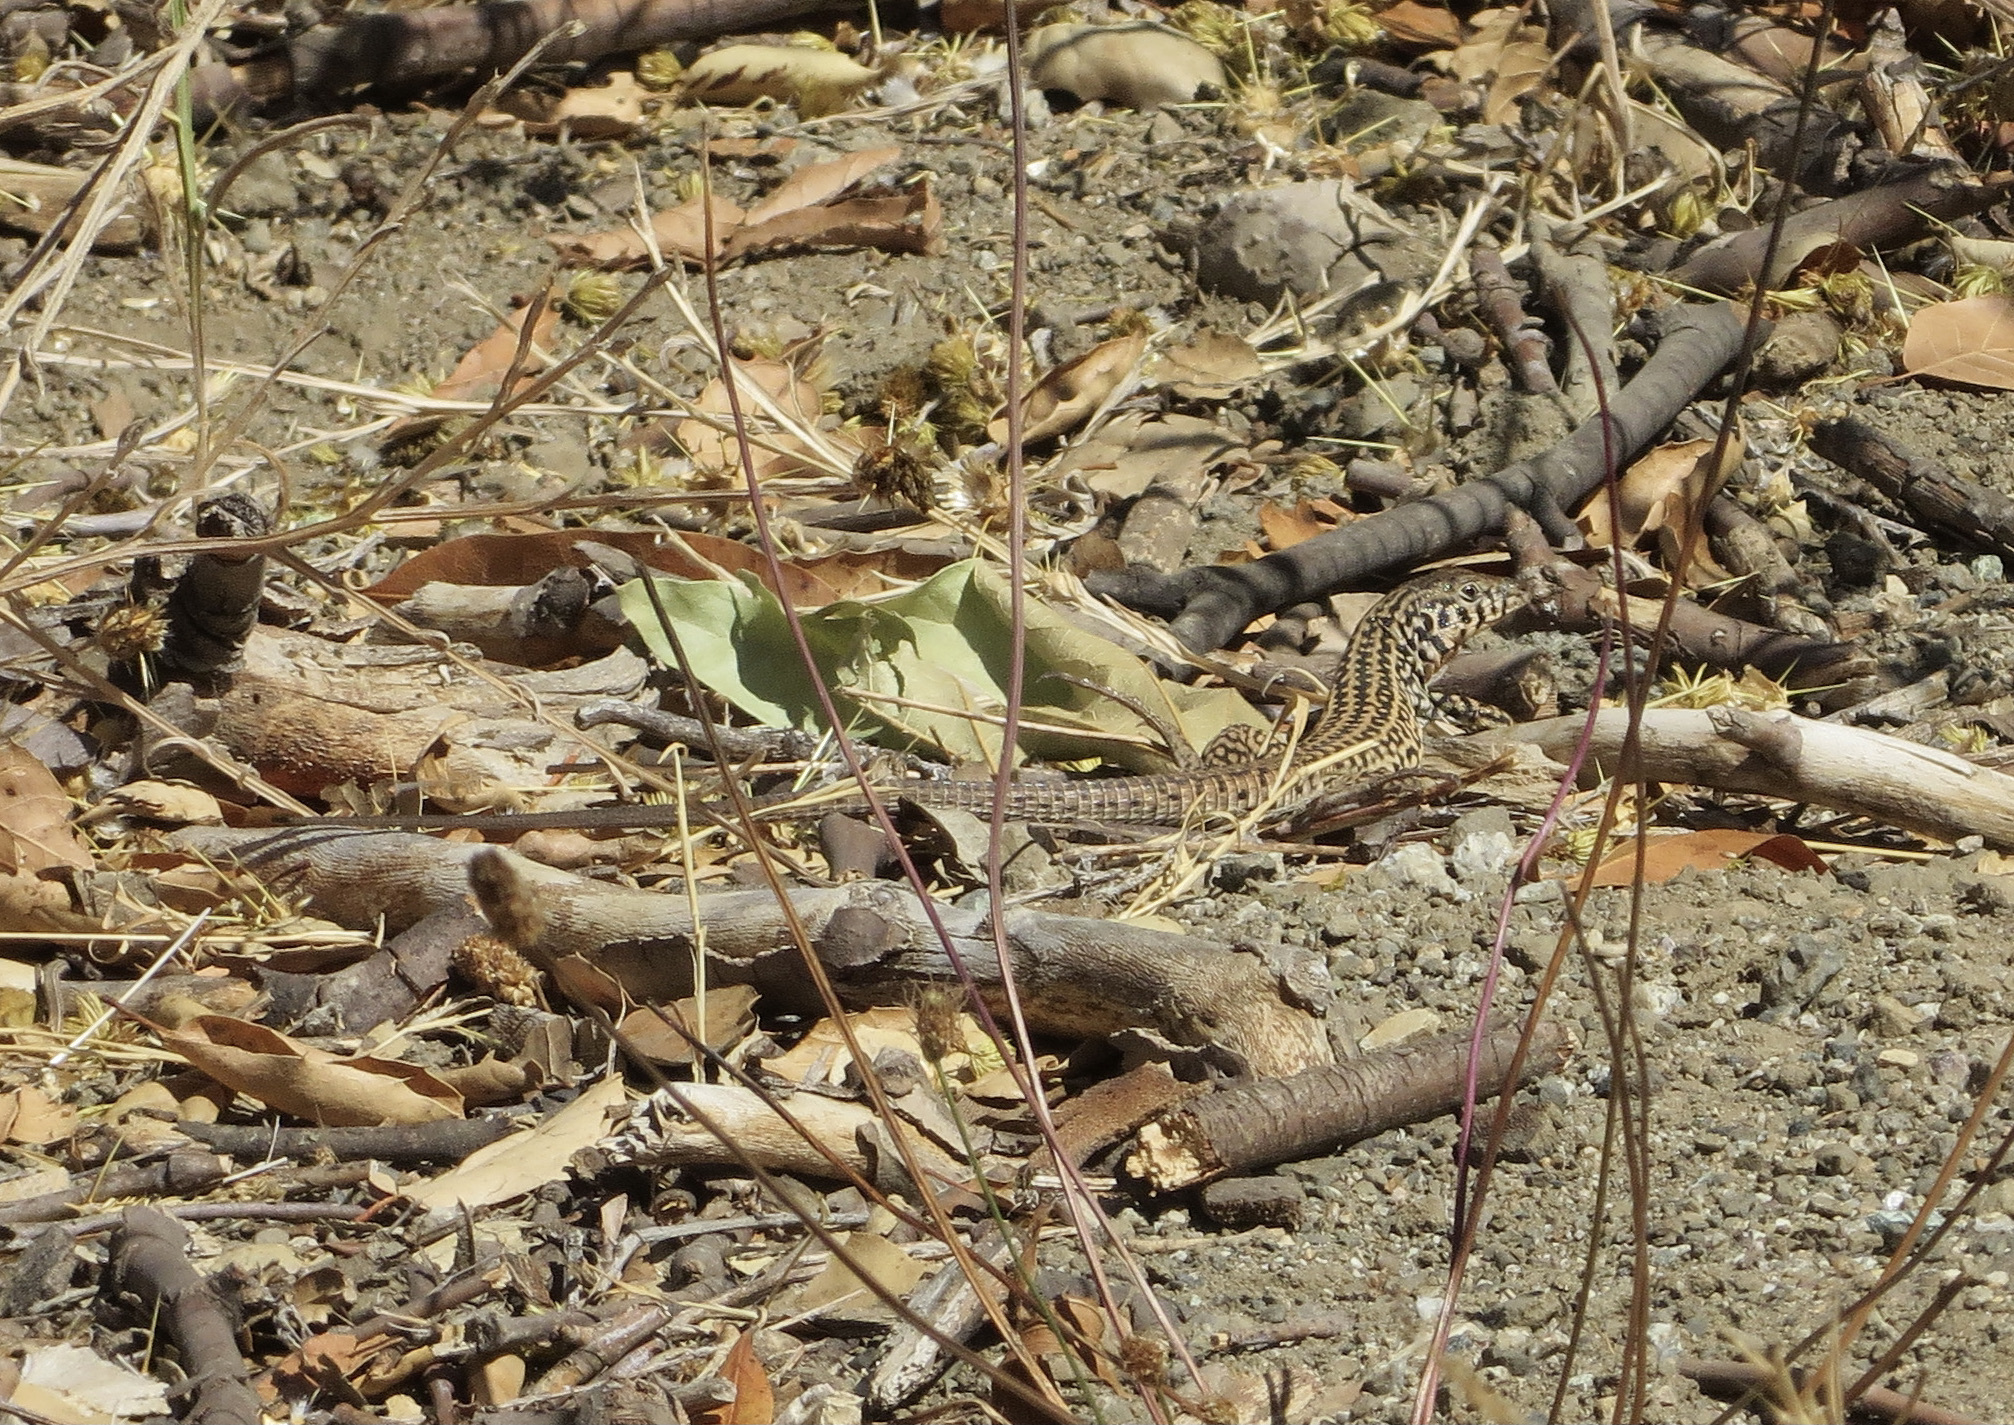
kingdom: Animalia
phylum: Chordata
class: Squamata
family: Teiidae
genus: Aspidoscelis
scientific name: Aspidoscelis tigris
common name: Tiger whiptail
